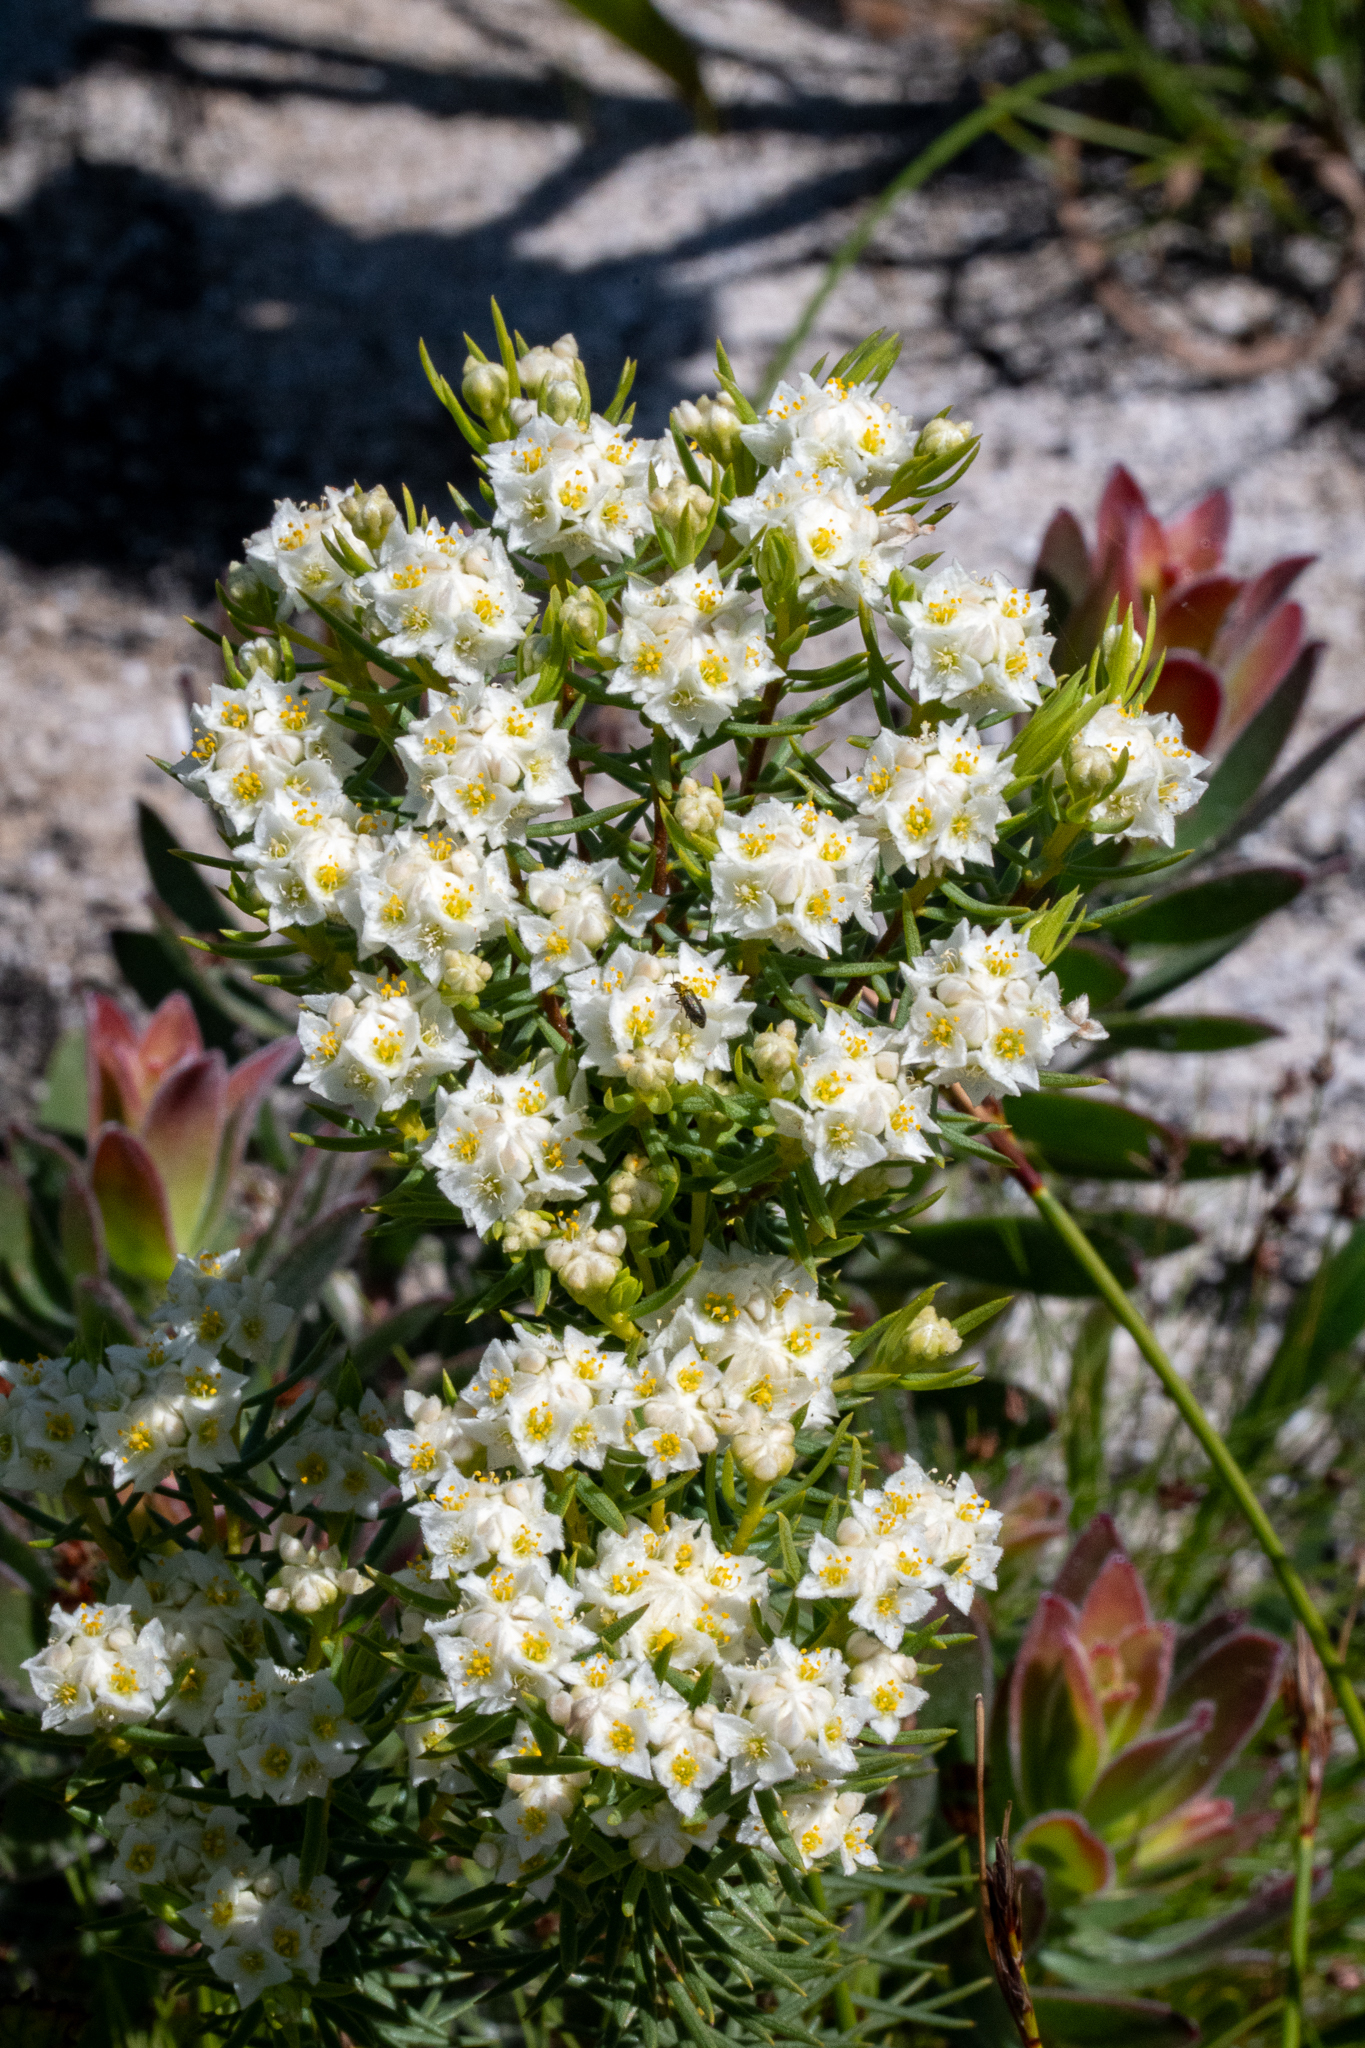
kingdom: Plantae
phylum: Tracheophyta
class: Magnoliopsida
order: Malvales
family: Thymelaeaceae
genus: Lachnaea
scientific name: Lachnaea densiflora
